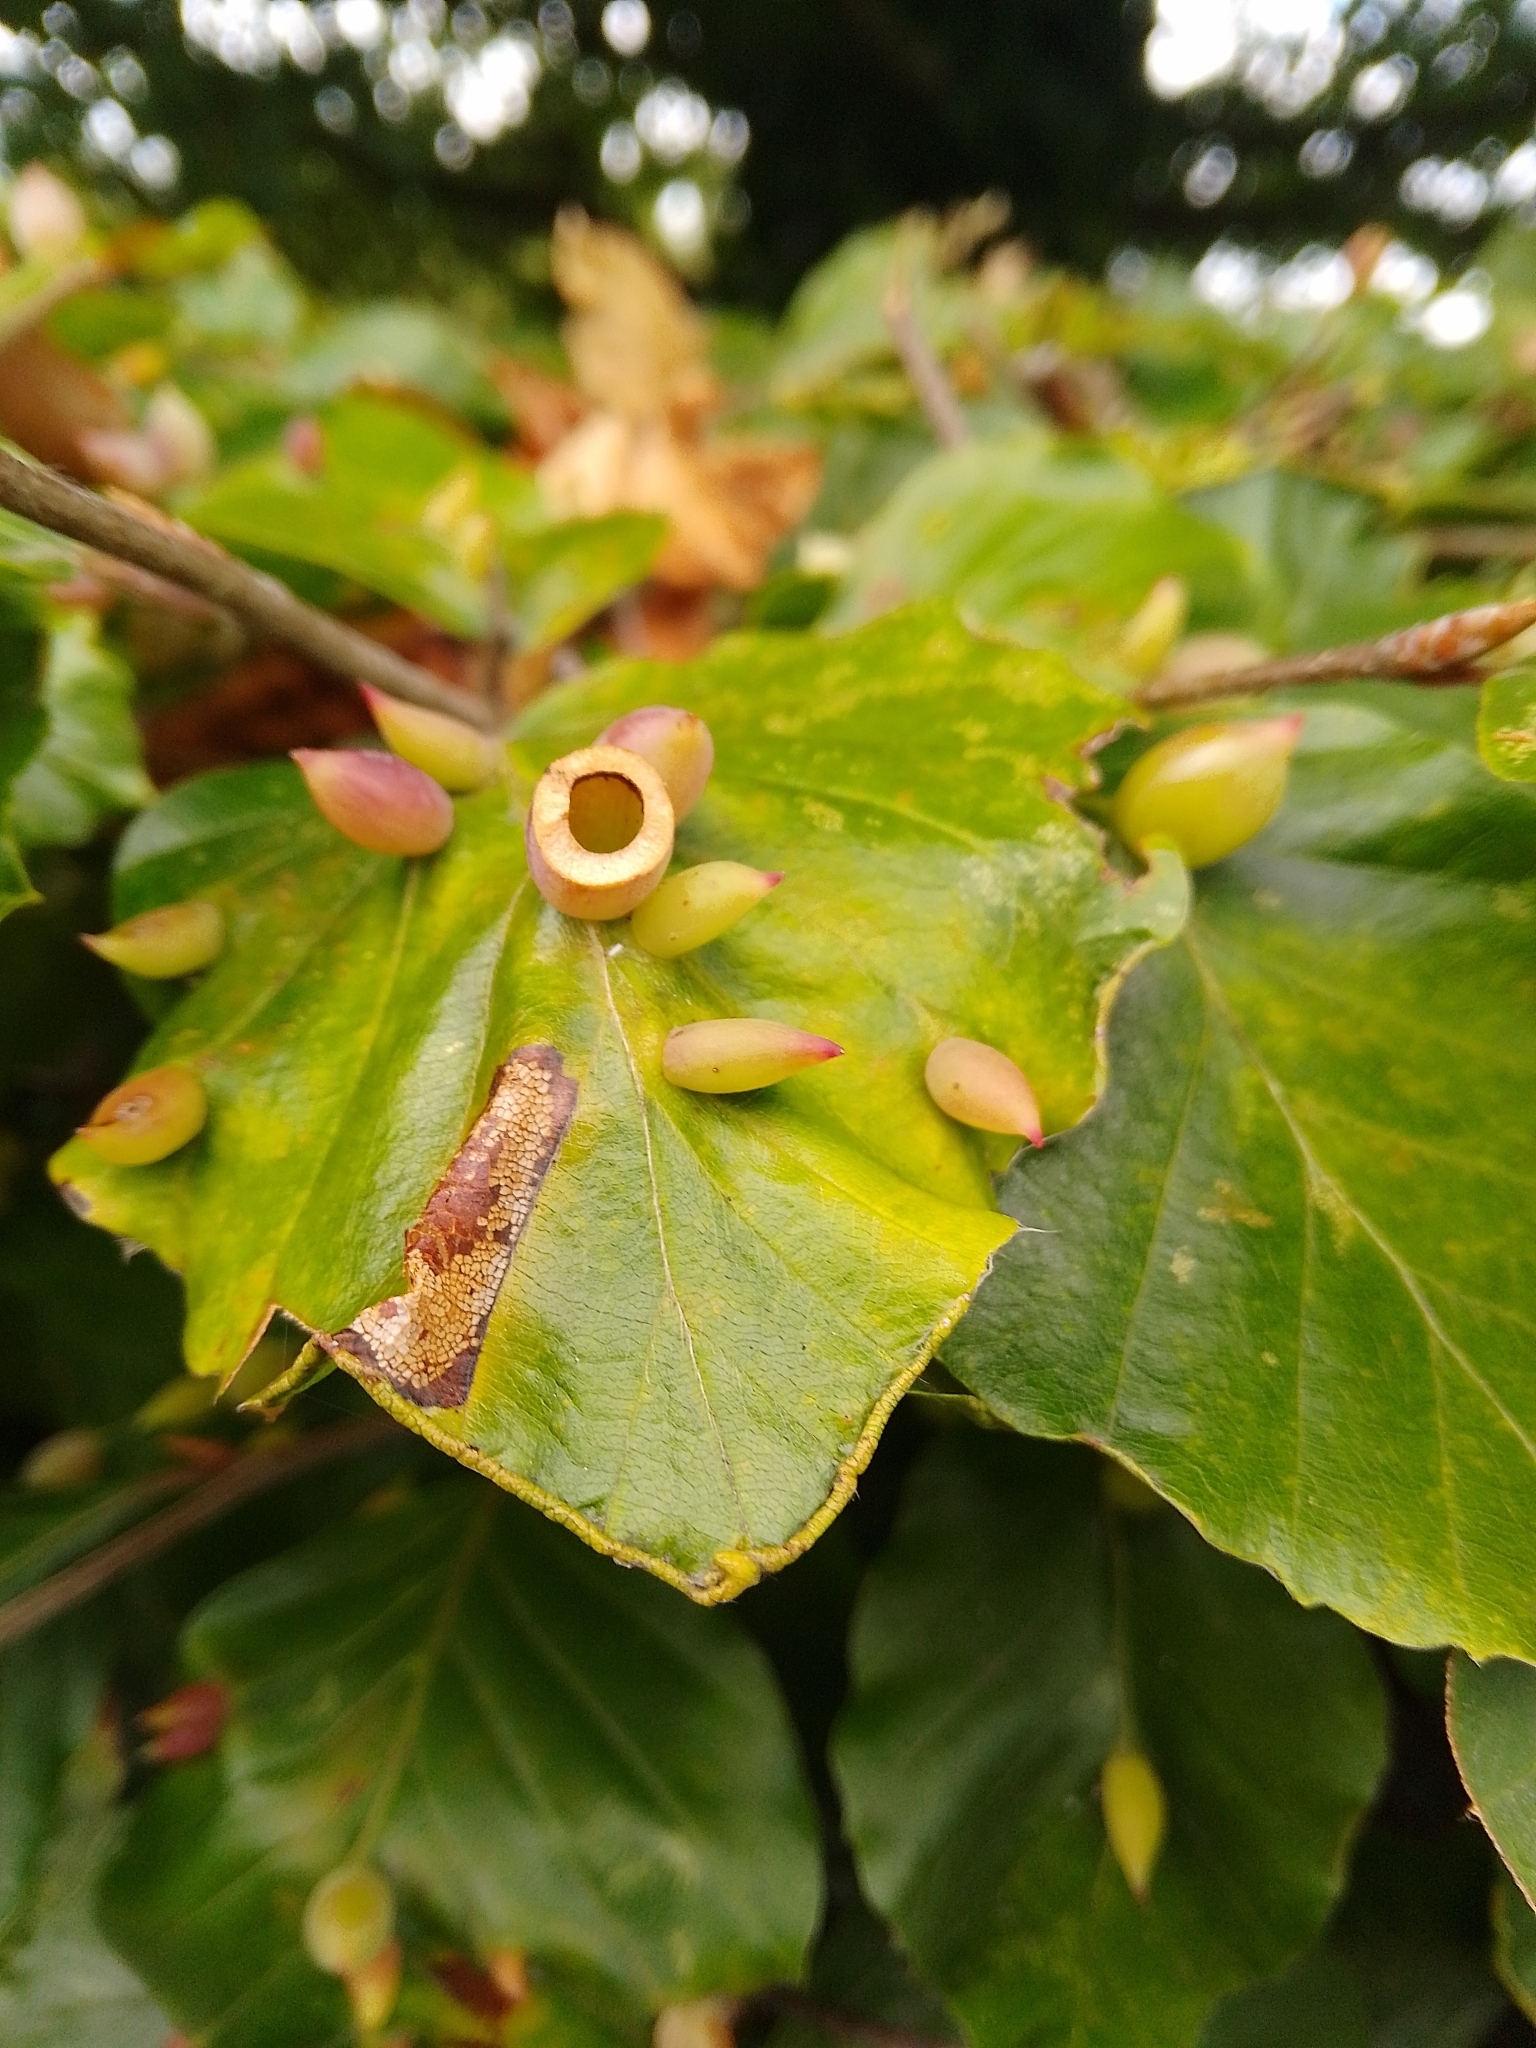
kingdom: Animalia
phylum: Arthropoda
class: Insecta
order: Diptera
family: Cecidomyiidae
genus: Mikiola
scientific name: Mikiola fagi
